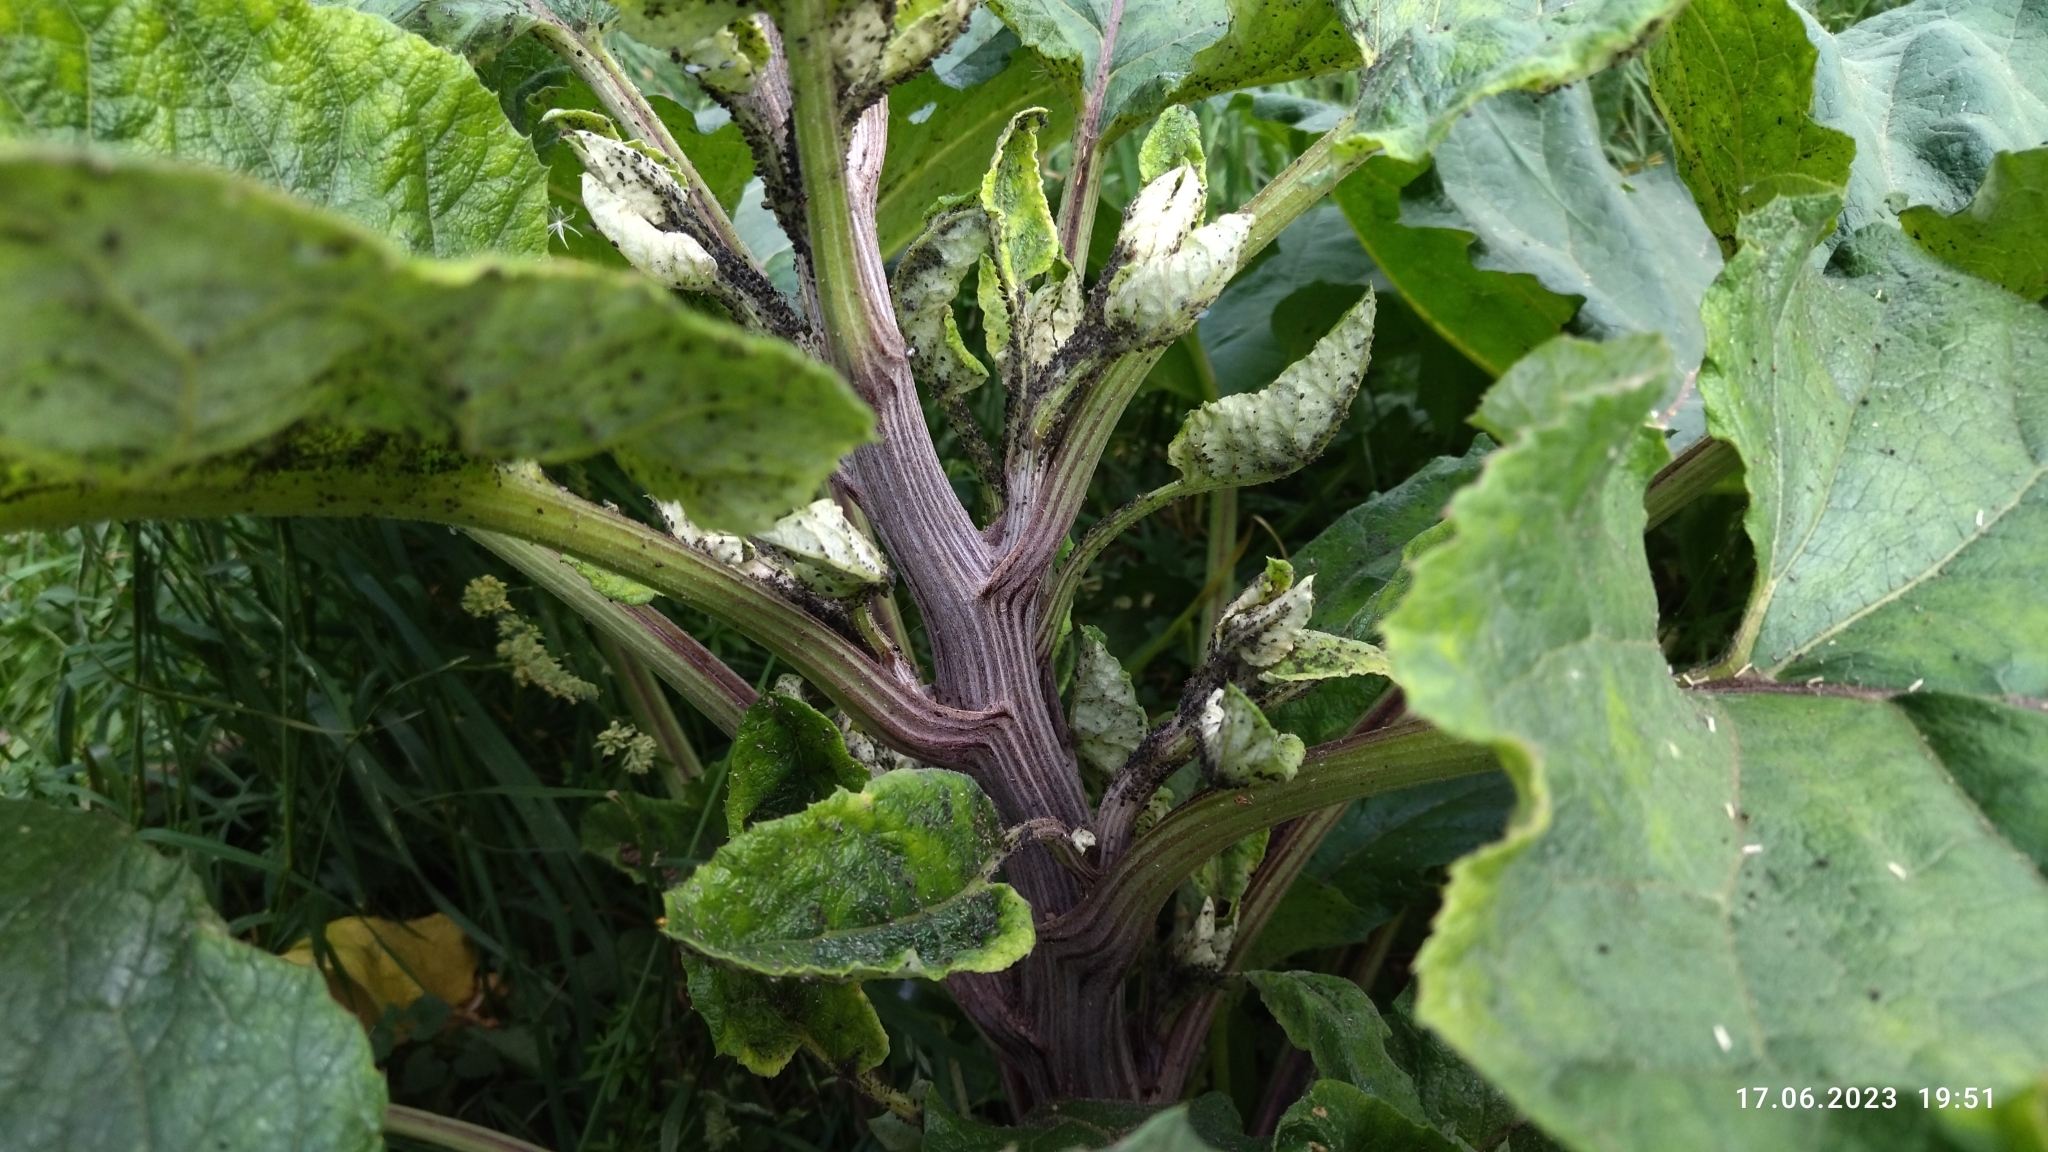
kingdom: Plantae
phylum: Tracheophyta
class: Magnoliopsida
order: Asterales
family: Asteraceae
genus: Arctium
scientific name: Arctium tomentosum
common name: Woolly burdock
